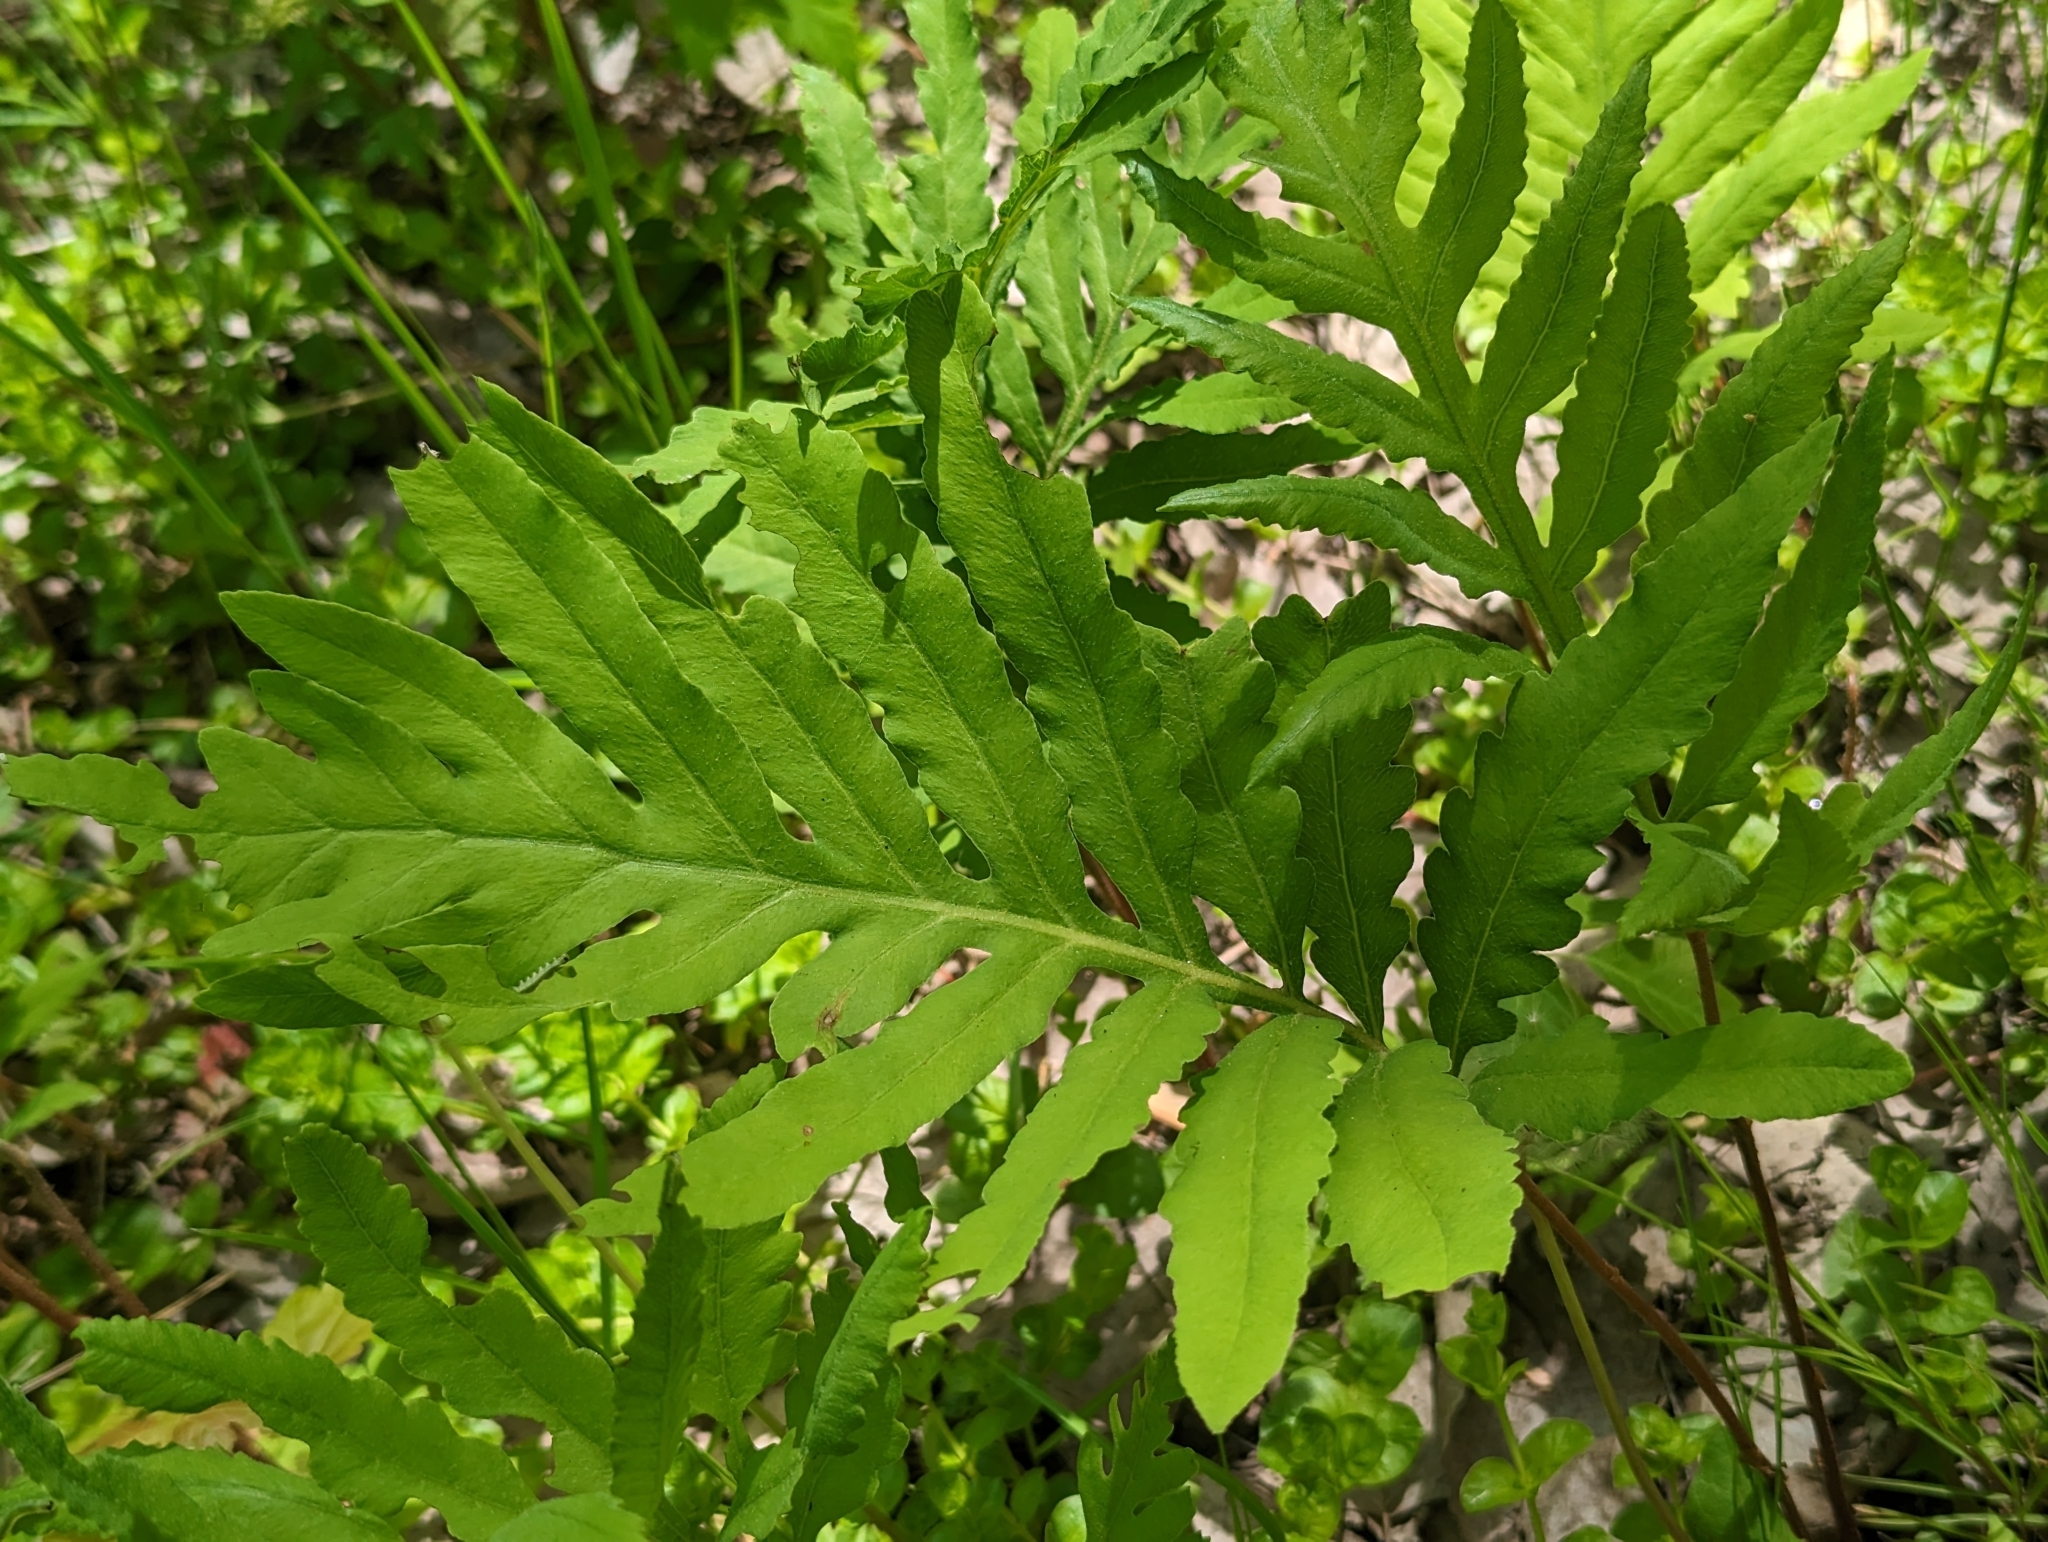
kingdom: Plantae
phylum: Tracheophyta
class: Polypodiopsida
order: Polypodiales
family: Onocleaceae
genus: Onoclea
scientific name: Onoclea sensibilis
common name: Sensitive fern
